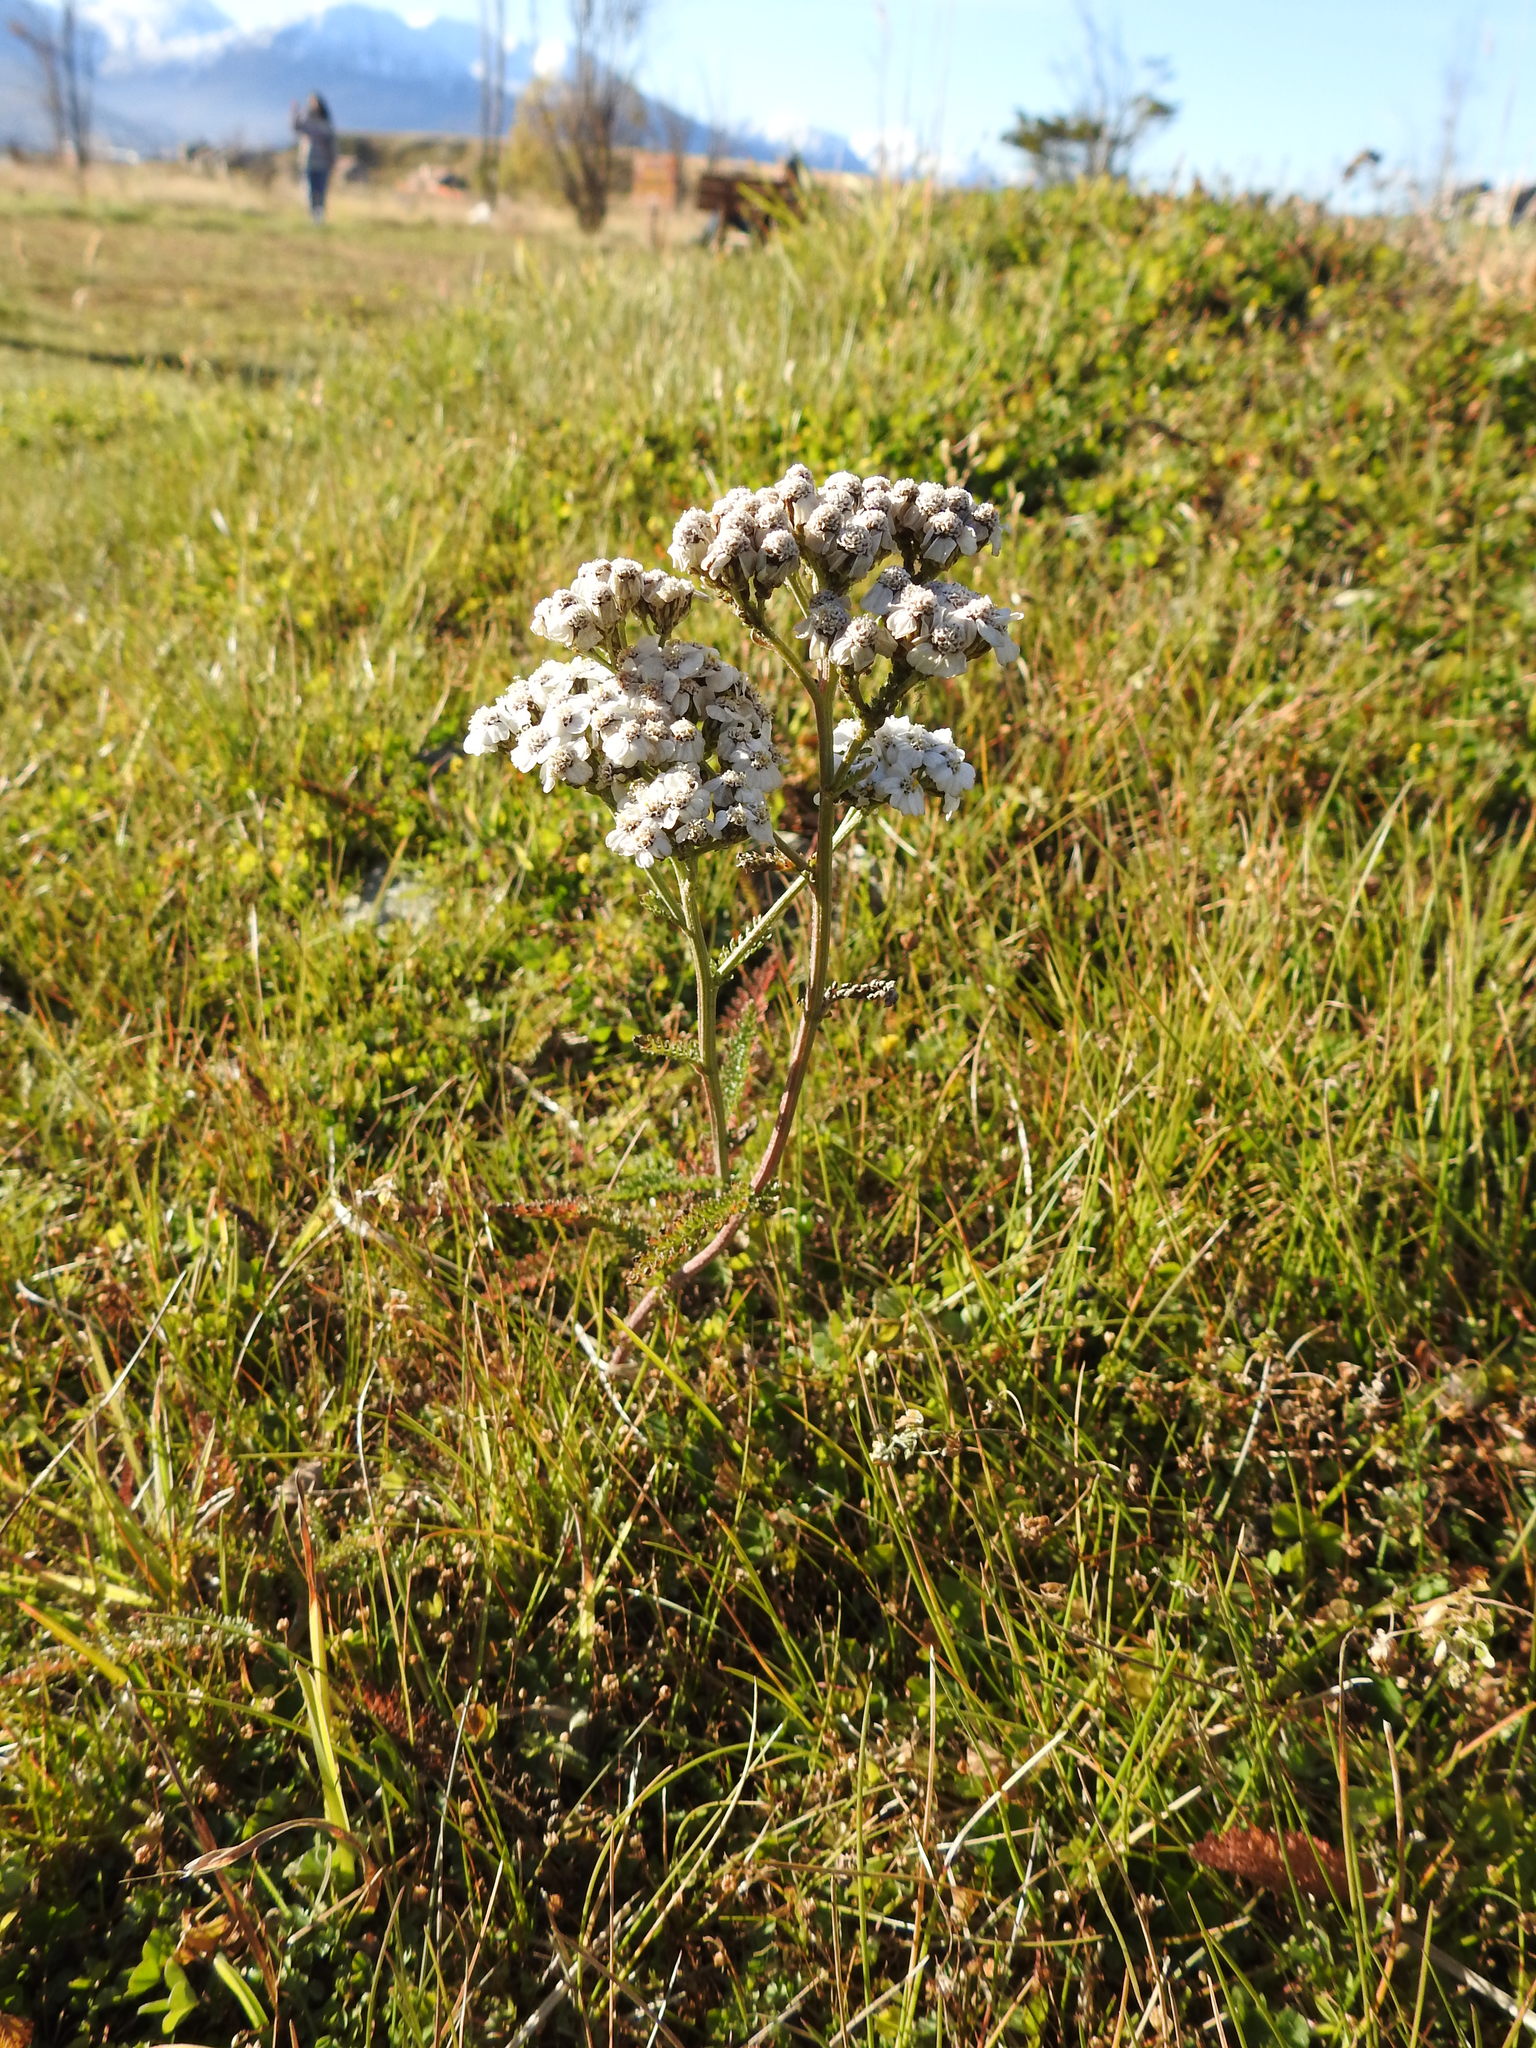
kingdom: Plantae
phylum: Tracheophyta
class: Magnoliopsida
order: Asterales
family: Asteraceae
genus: Achillea
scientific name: Achillea millefolium
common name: Yarrow
